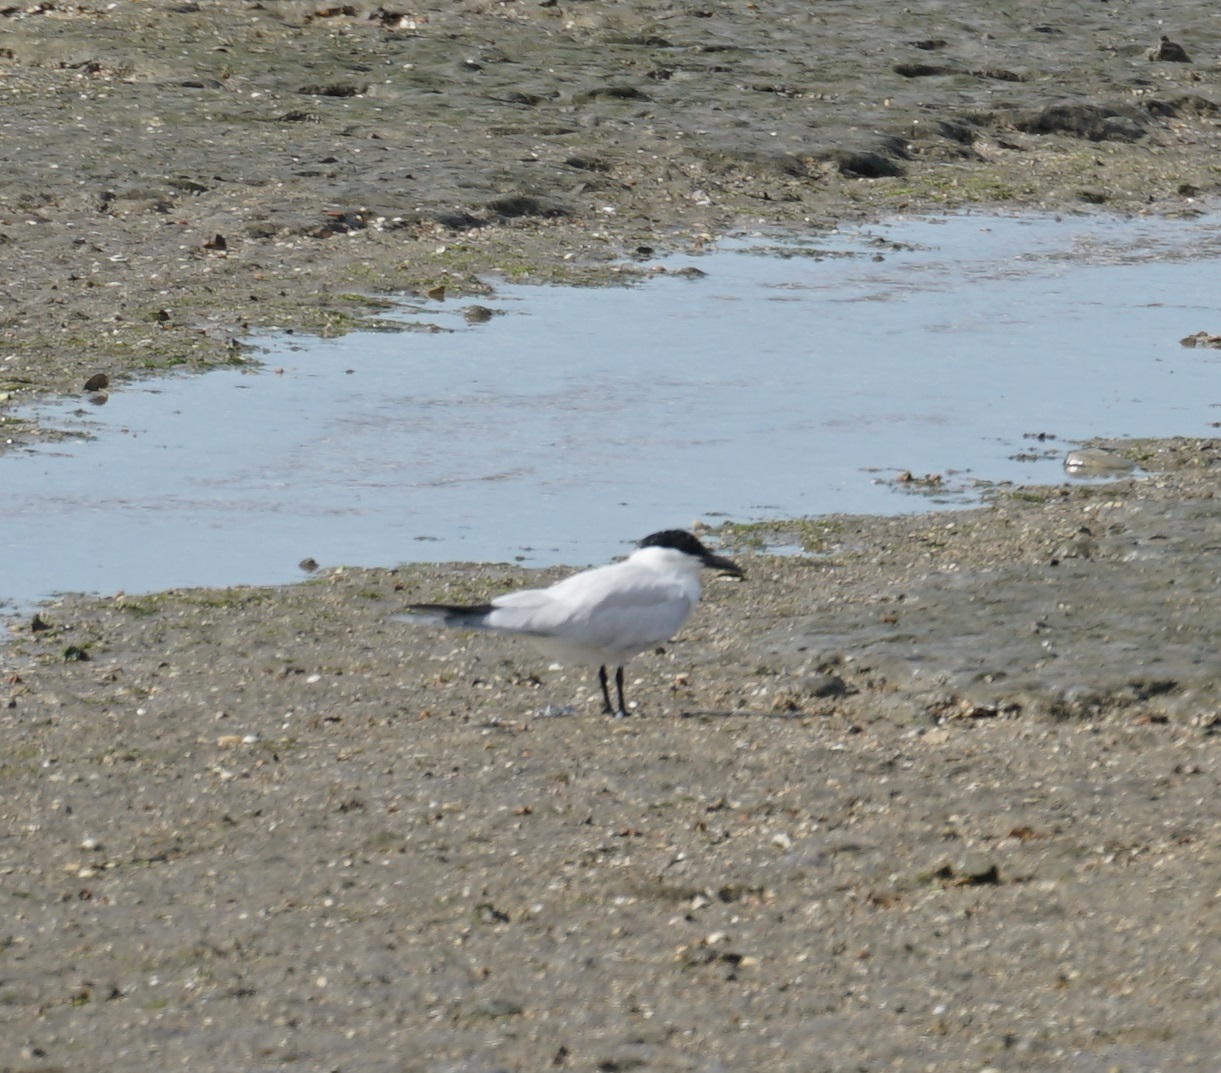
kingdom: Animalia
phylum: Chordata
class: Aves
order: Charadriiformes
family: Laridae
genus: Gelochelidon
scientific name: Gelochelidon macrotarsa
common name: Australian tern
